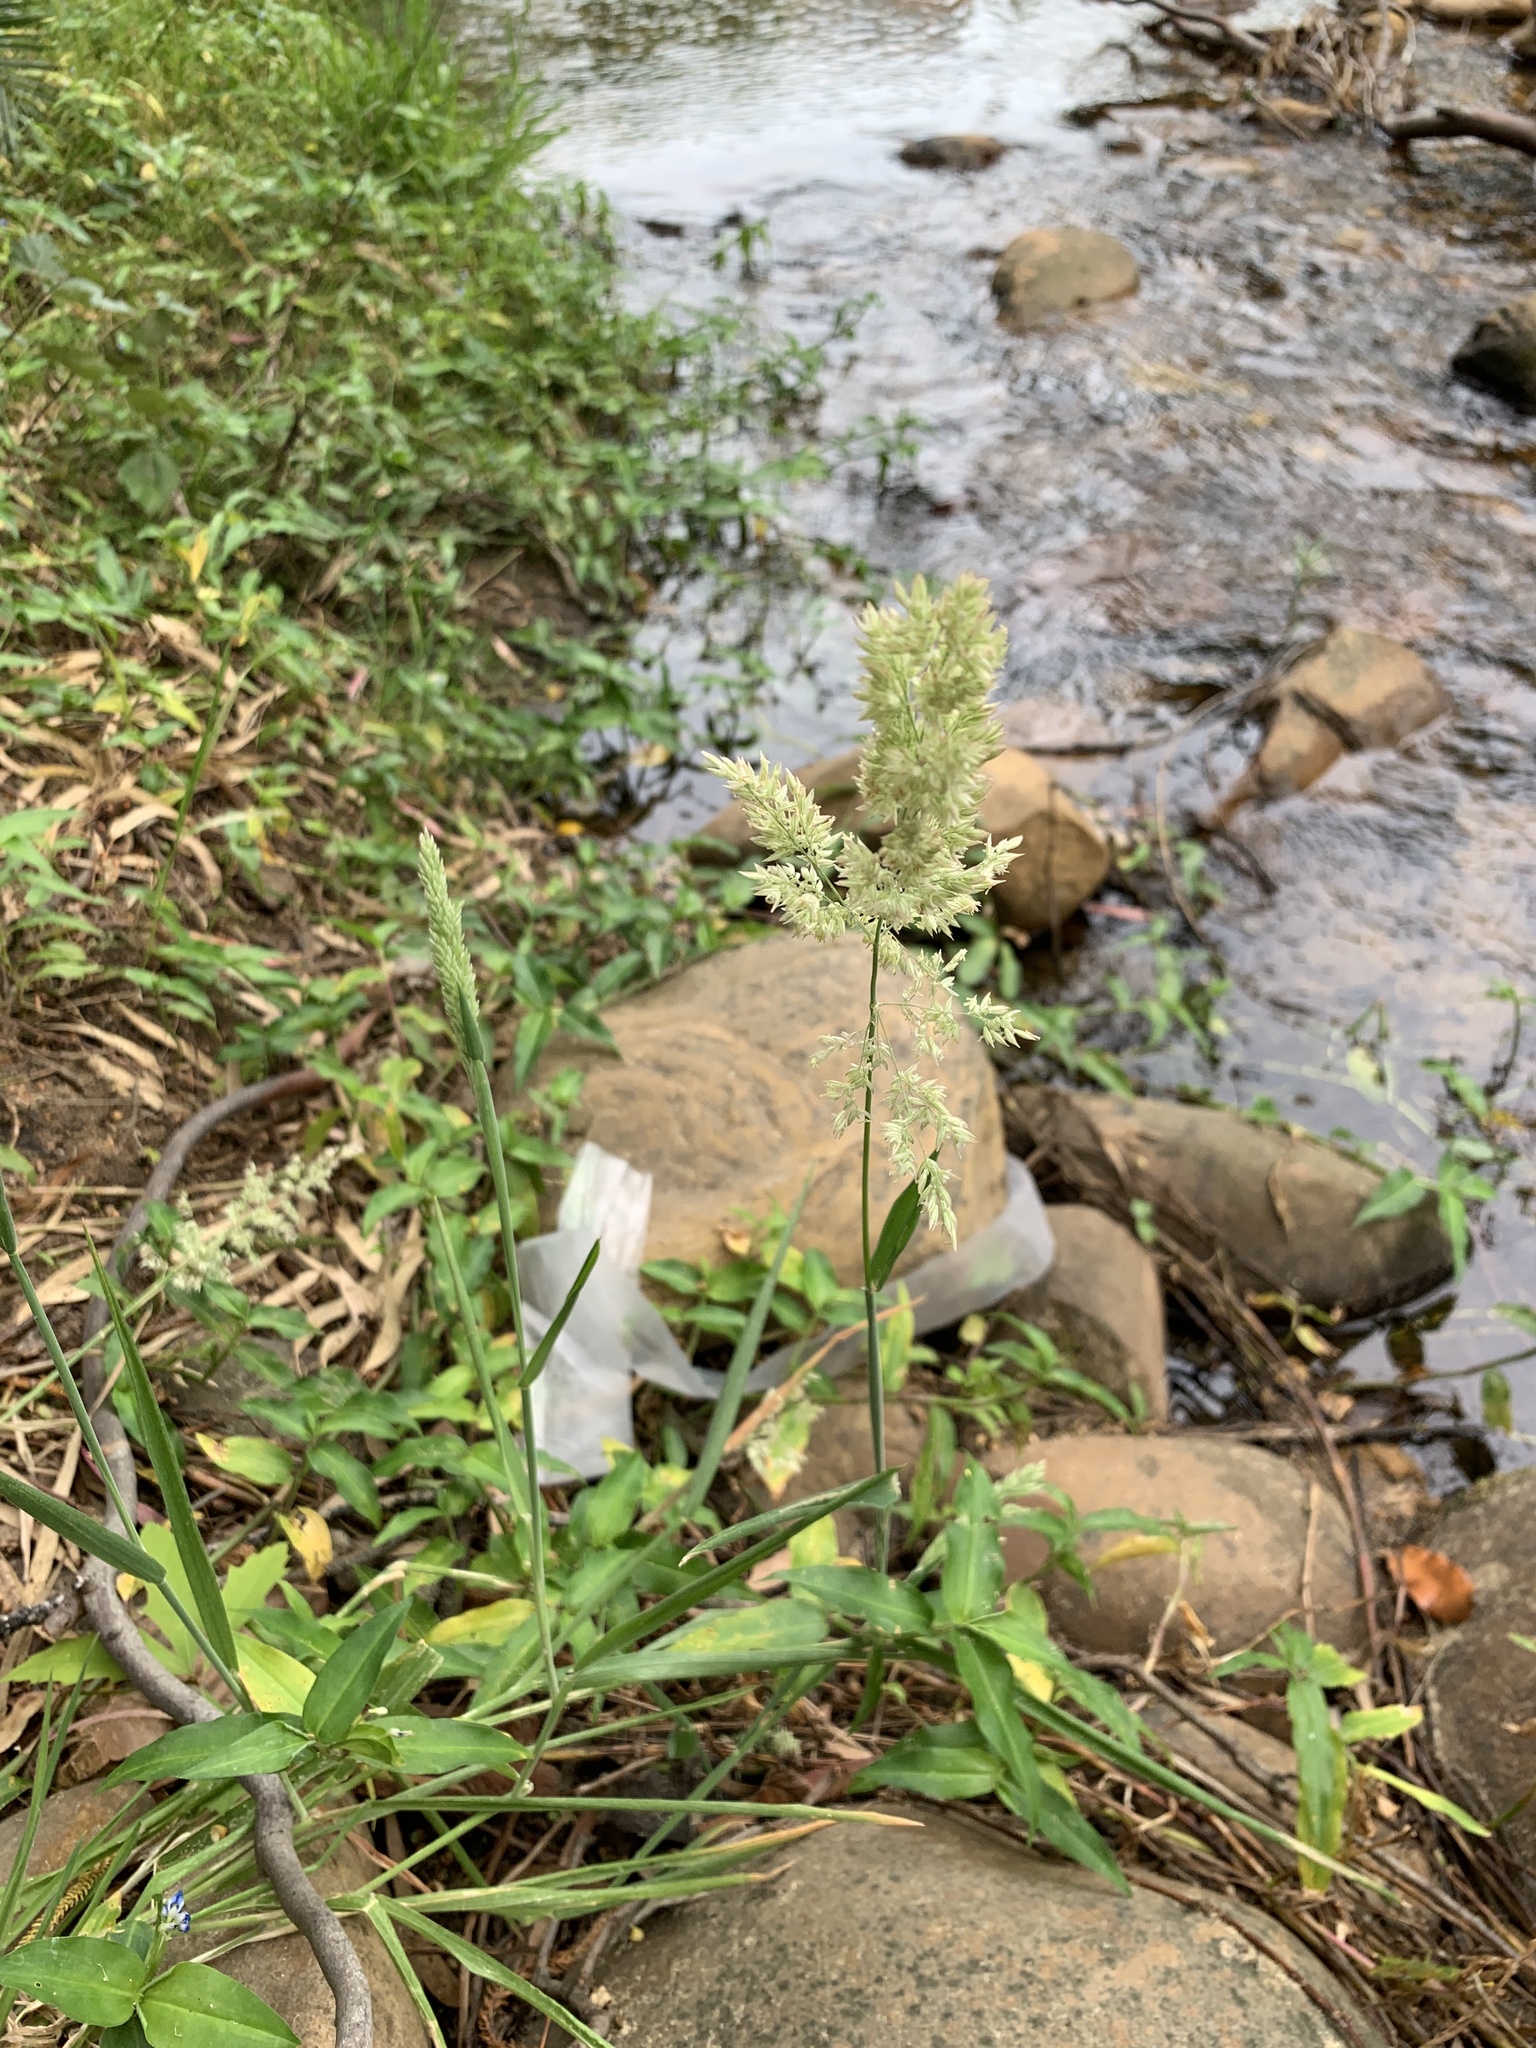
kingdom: Plantae
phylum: Tracheophyta
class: Liliopsida
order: Poales
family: Poaceae
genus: Holcus
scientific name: Holcus lanatus
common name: Yorkshire-fog
